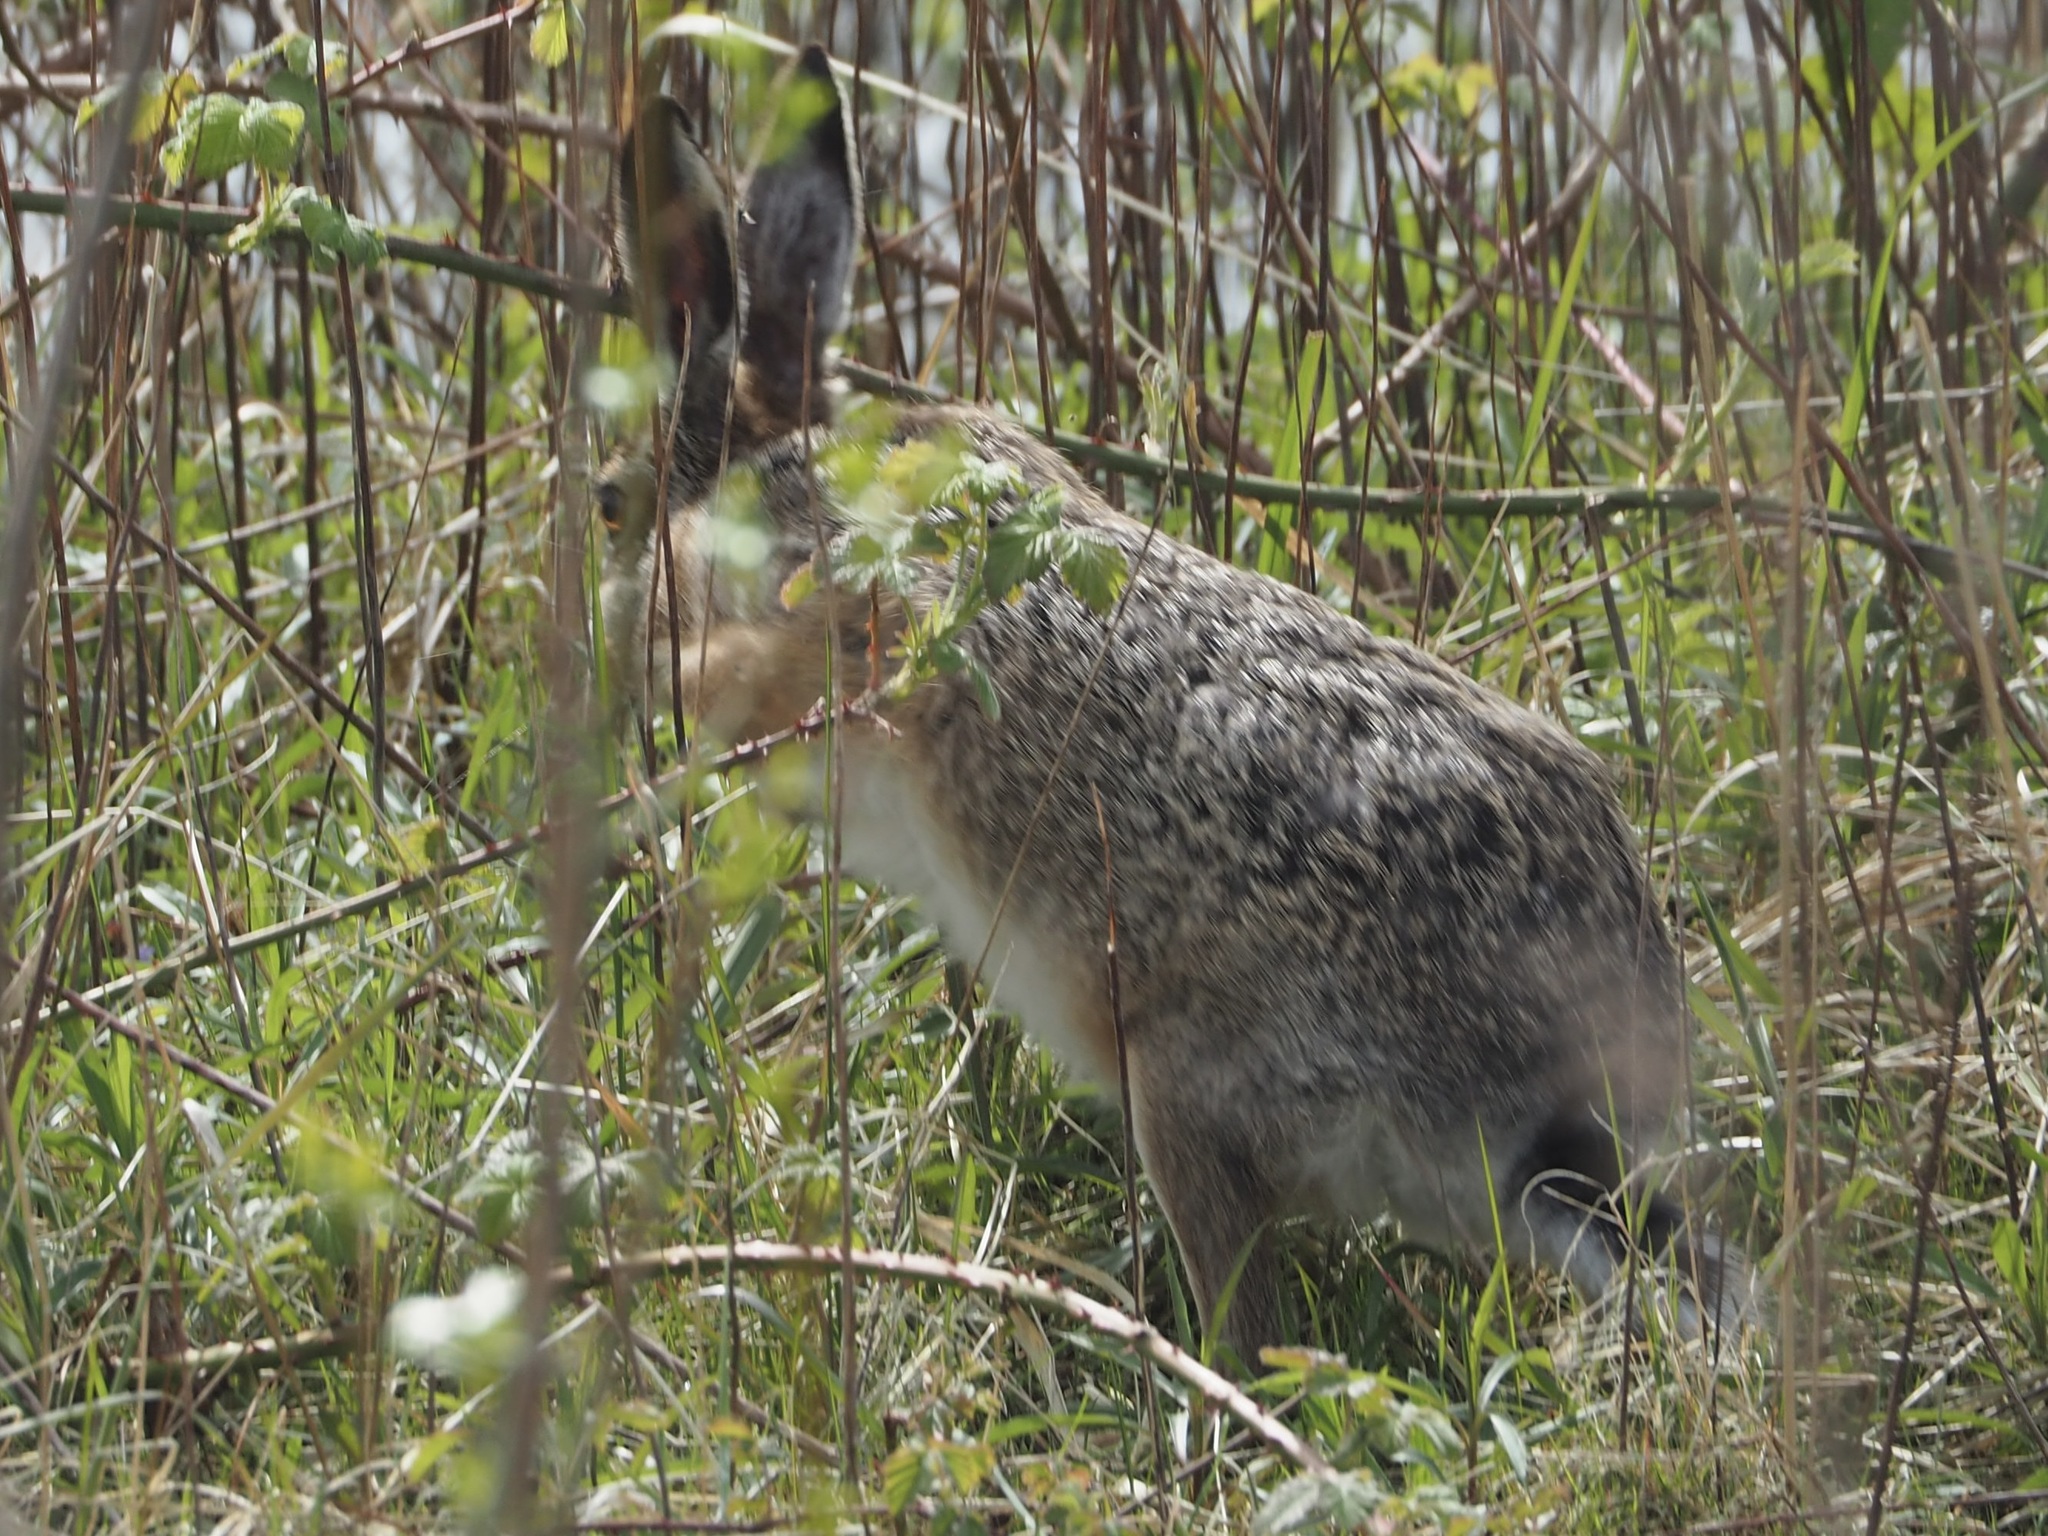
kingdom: Animalia
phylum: Chordata
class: Mammalia
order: Lagomorpha
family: Leporidae
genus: Lepus
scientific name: Lepus europaeus
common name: European hare
